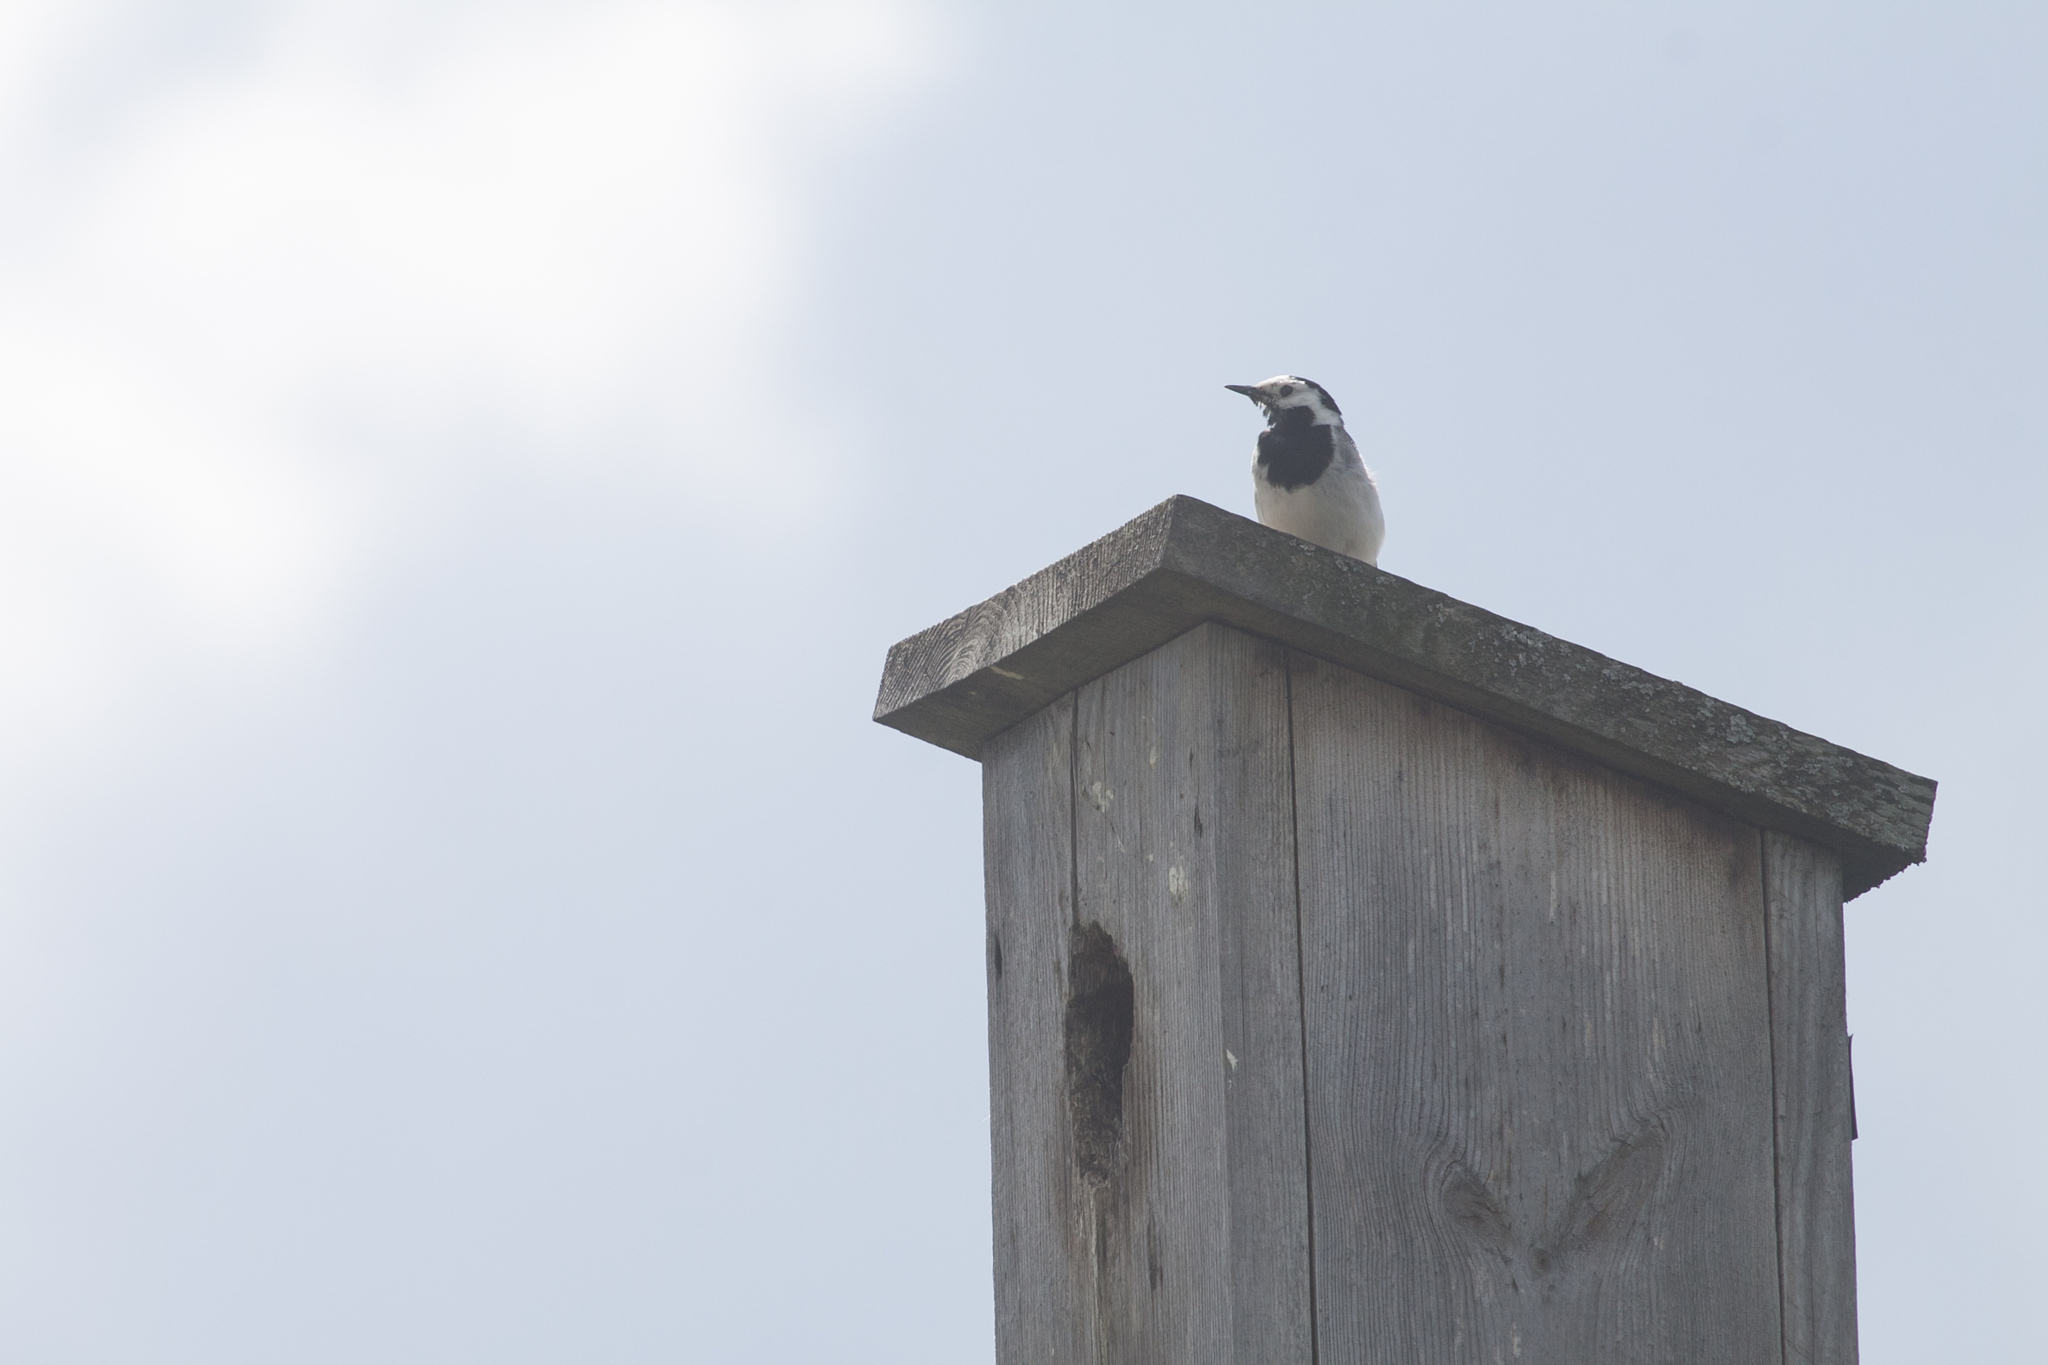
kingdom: Animalia
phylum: Chordata
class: Aves
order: Passeriformes
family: Motacillidae
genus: Motacilla
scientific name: Motacilla alba
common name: White wagtail
